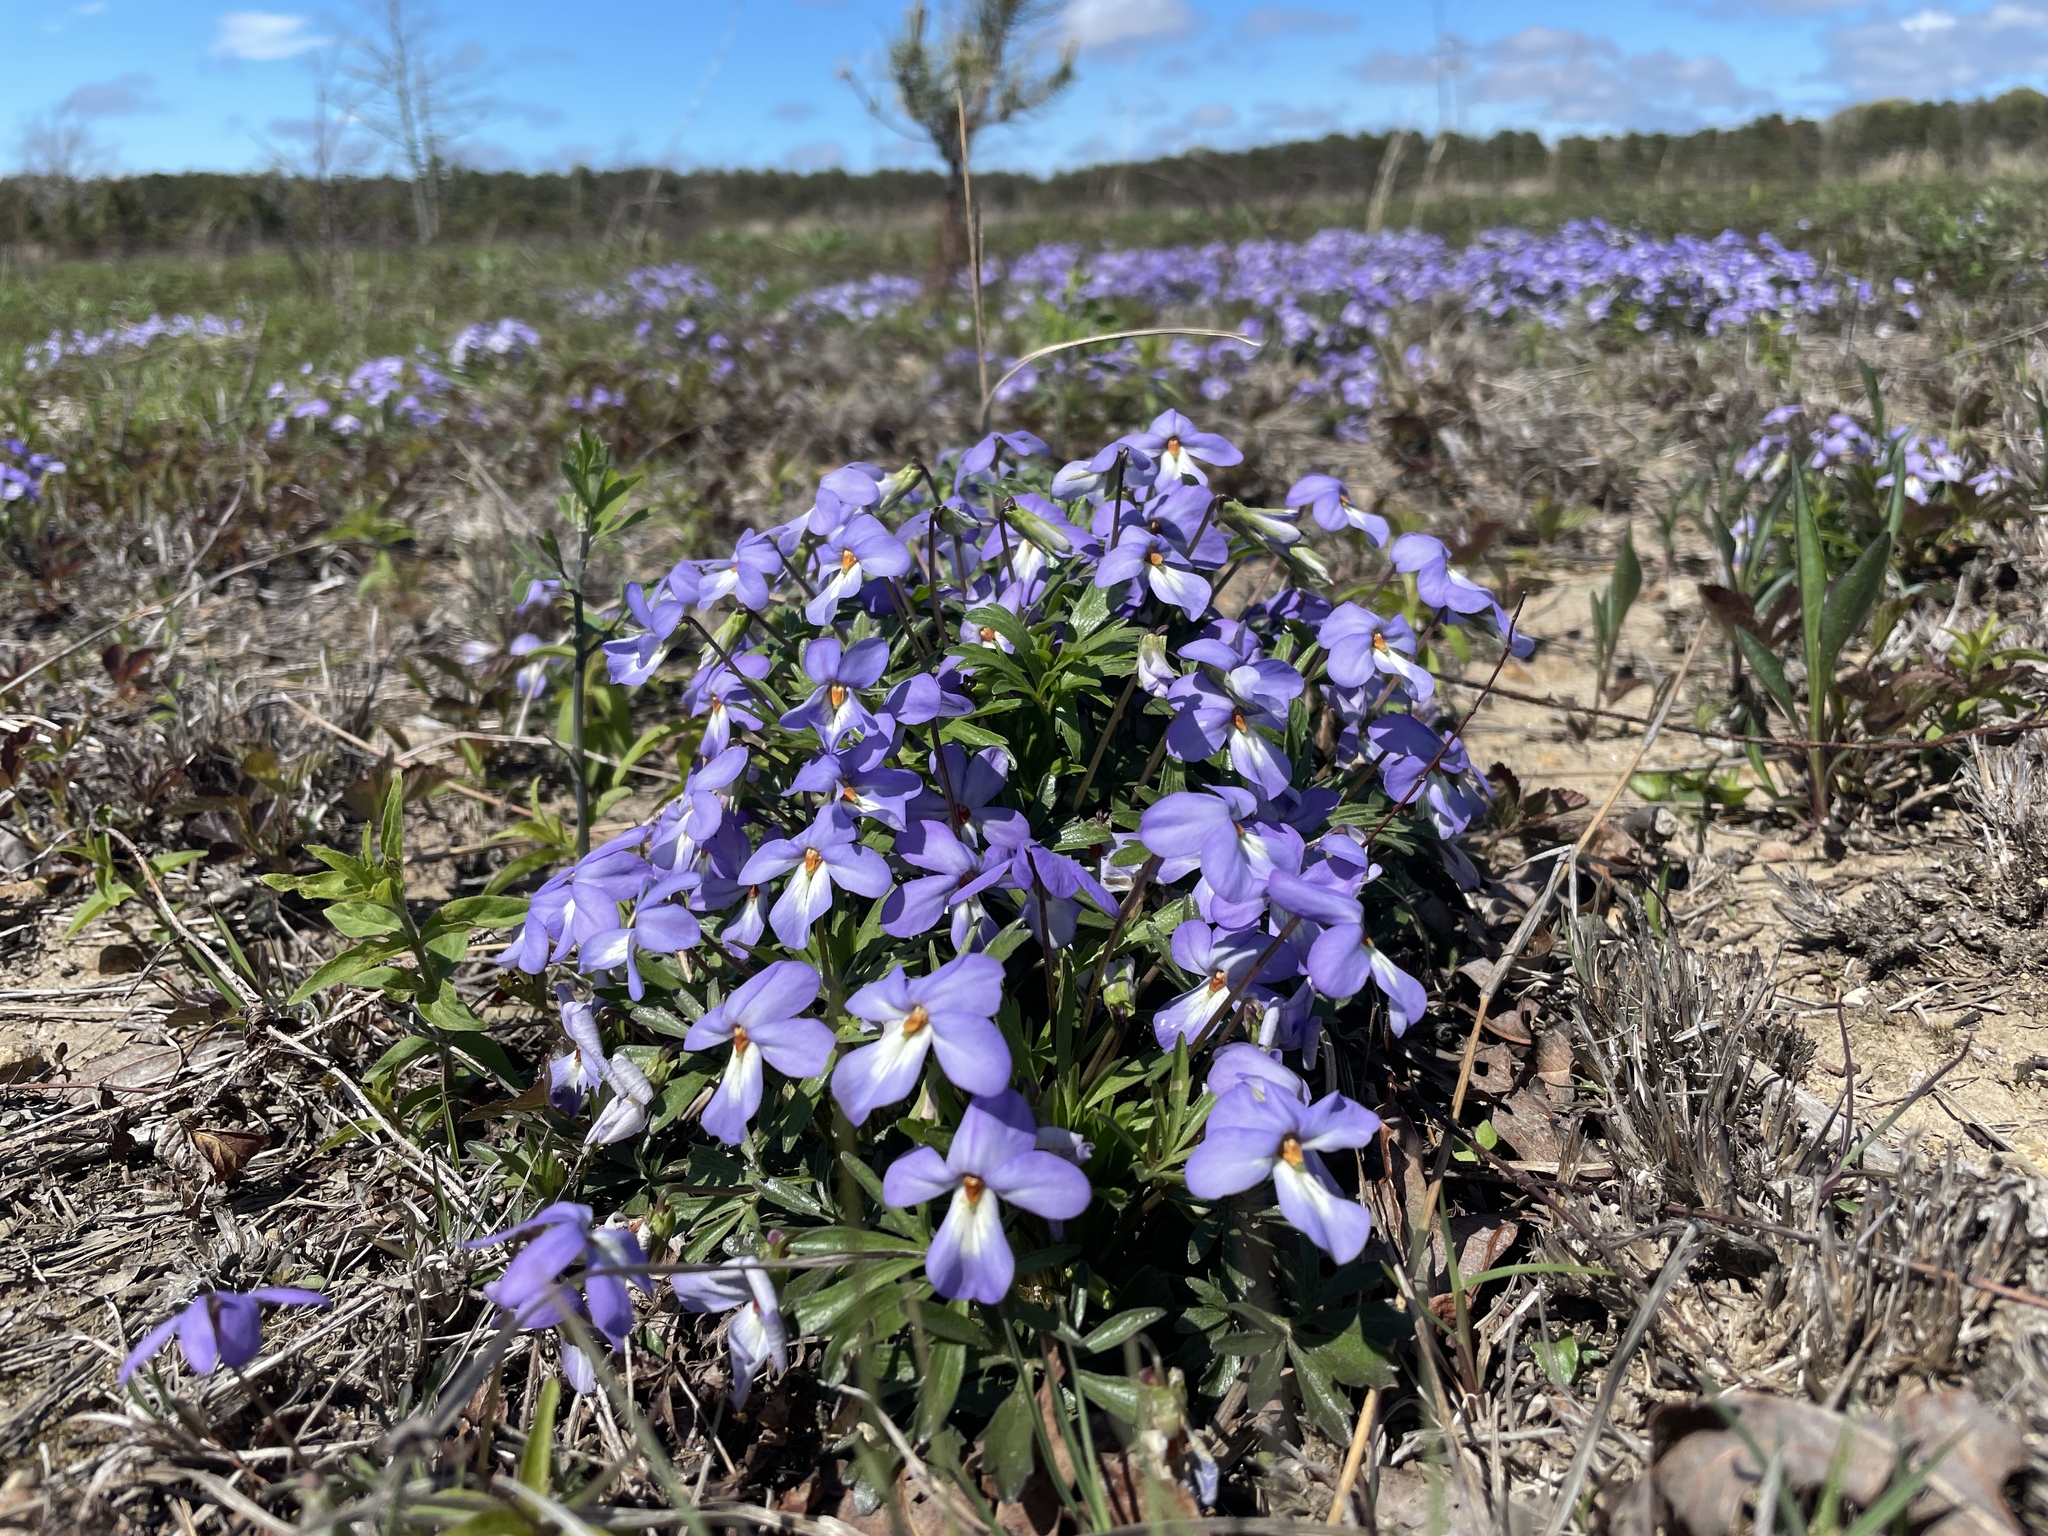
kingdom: Plantae
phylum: Tracheophyta
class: Magnoliopsida
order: Malpighiales
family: Violaceae
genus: Viola
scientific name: Viola pedata
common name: Pansy violet
